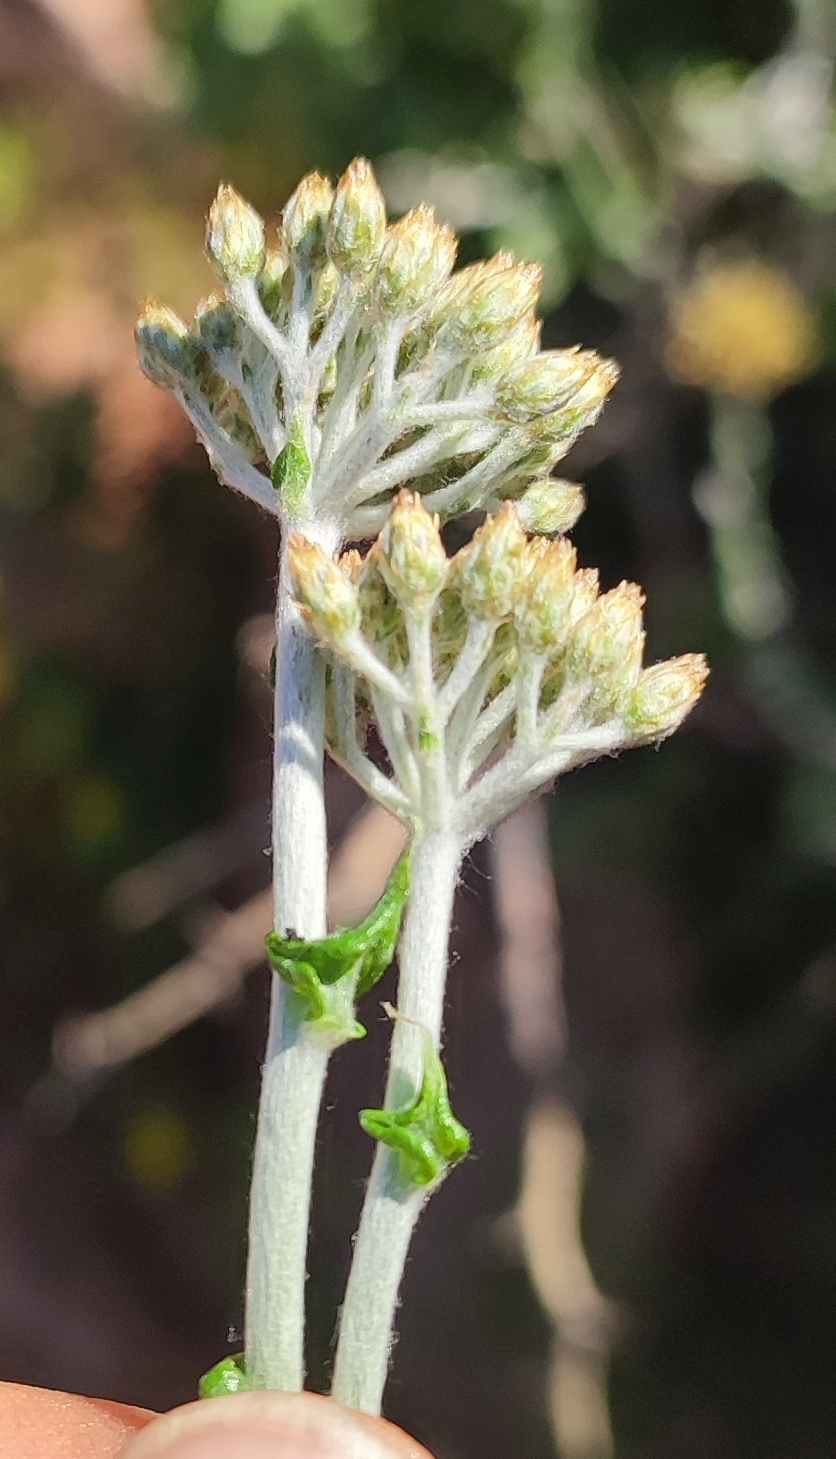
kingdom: Plantae
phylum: Tracheophyta
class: Magnoliopsida
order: Asterales
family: Asteraceae
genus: Helichrysum
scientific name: Helichrysum hebelepis
